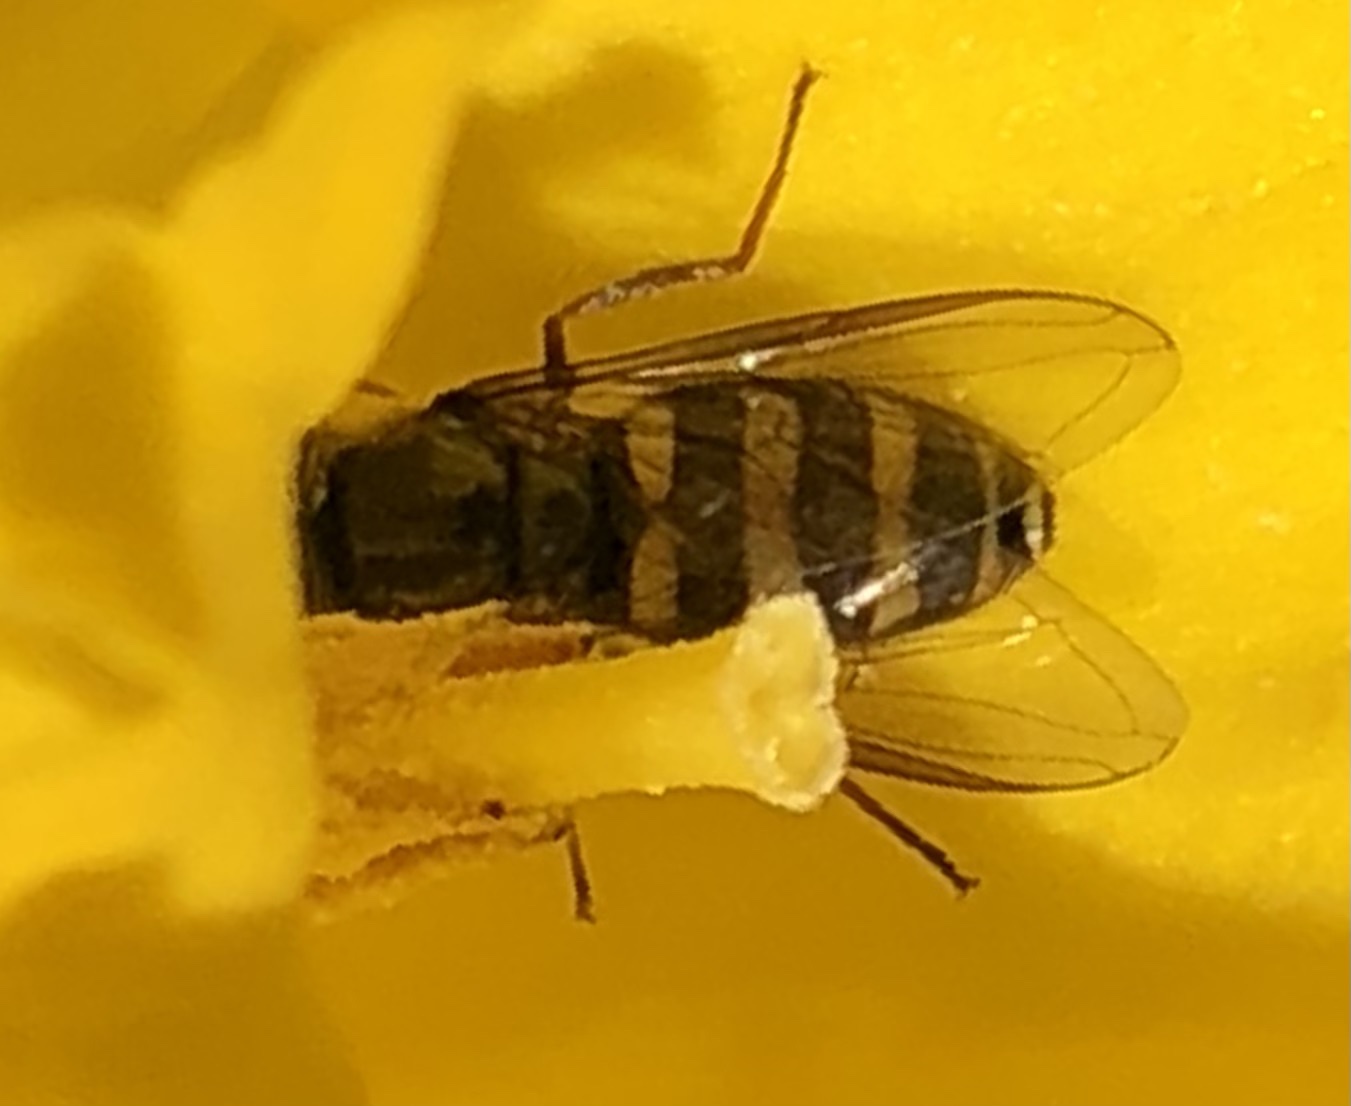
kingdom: Animalia
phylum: Arthropoda
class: Insecta
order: Diptera
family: Syrphidae
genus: Eupeodes
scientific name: Eupeodes
